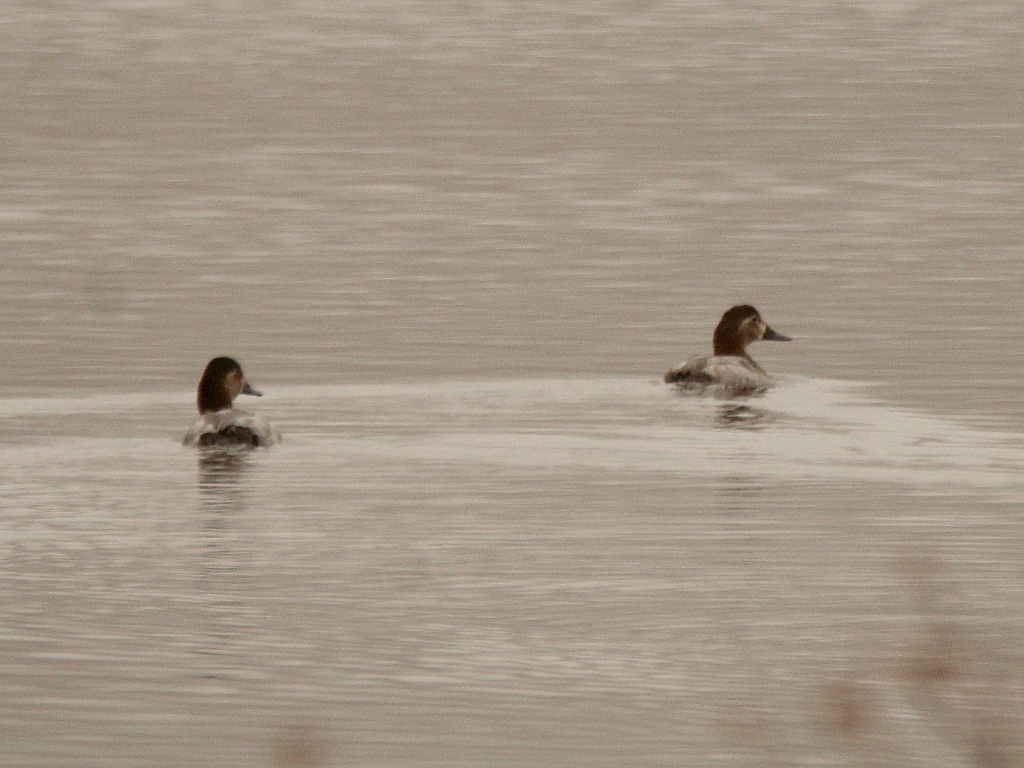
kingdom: Animalia
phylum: Chordata
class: Aves
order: Anseriformes
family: Anatidae
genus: Aythya
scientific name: Aythya ferina
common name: Common pochard
